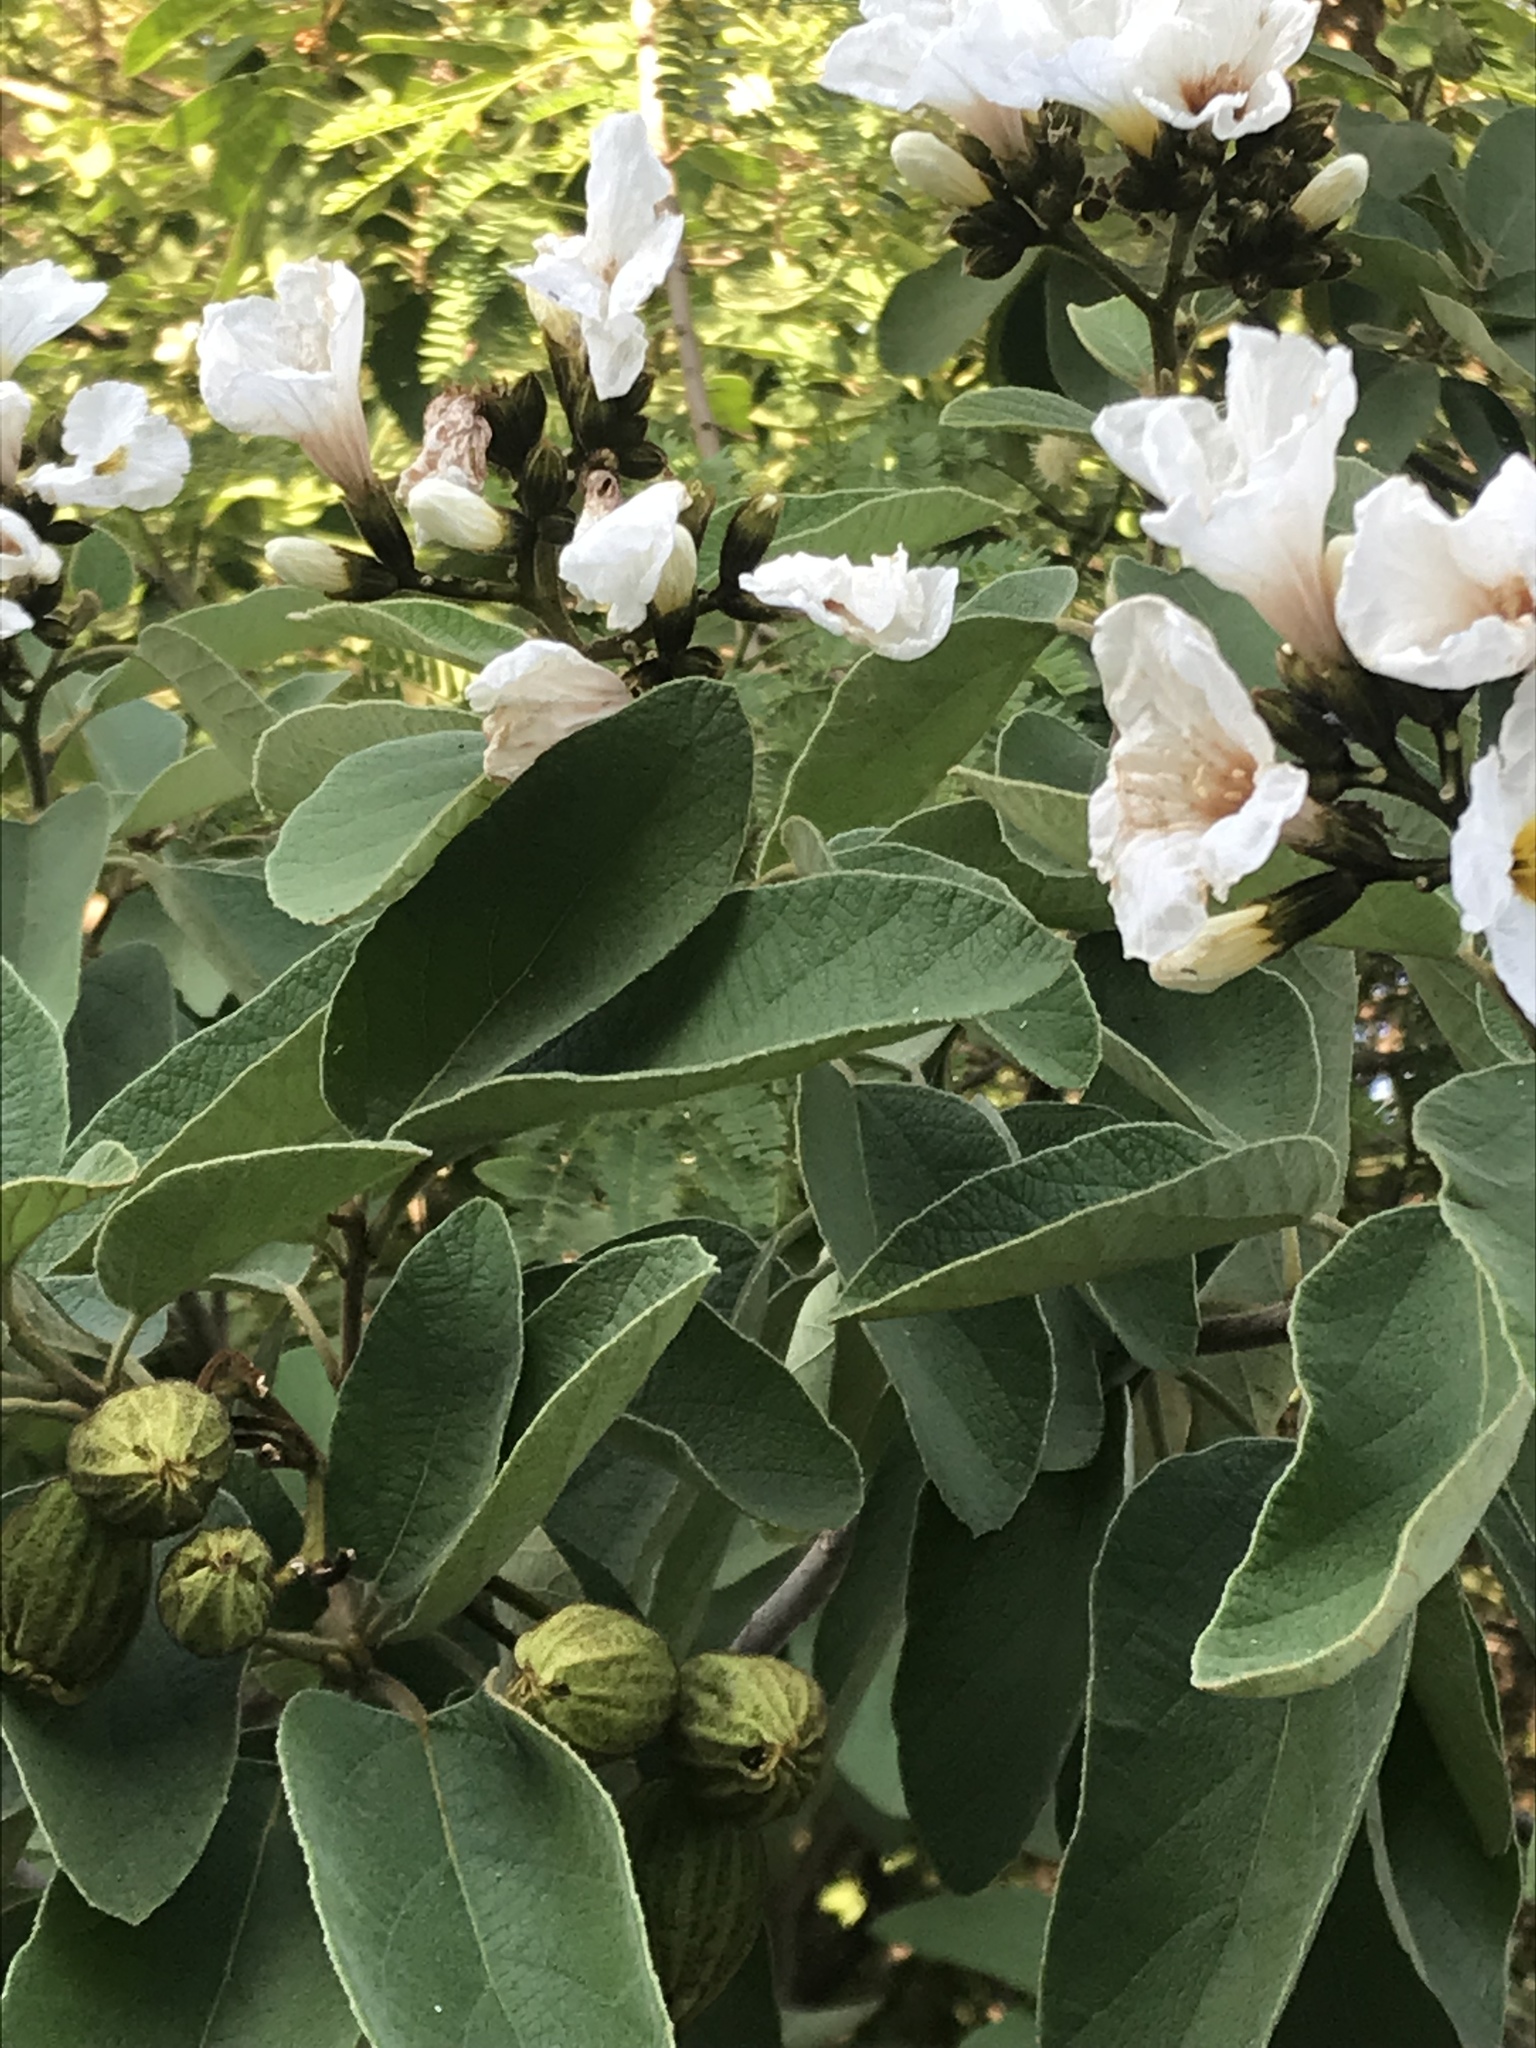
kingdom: Plantae
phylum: Tracheophyta
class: Magnoliopsida
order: Boraginales
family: Cordiaceae
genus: Cordia
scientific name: Cordia boissieri
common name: Mexican-olive
